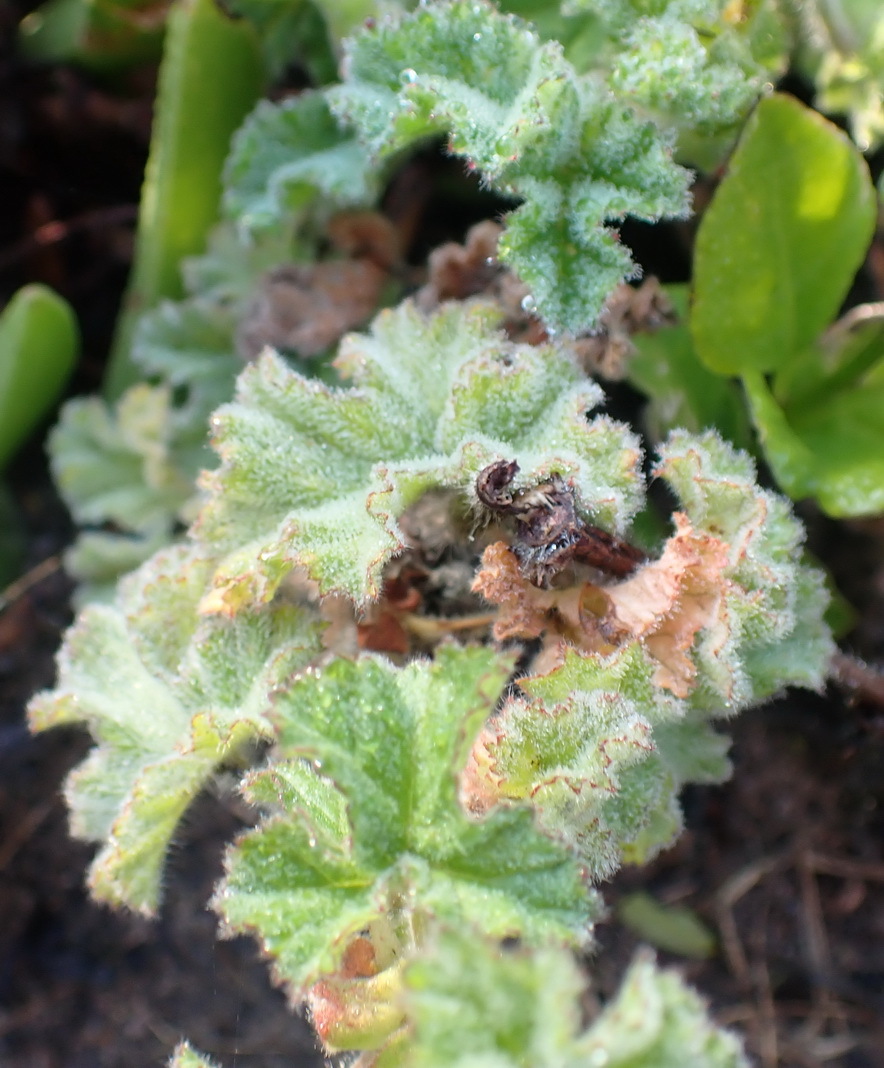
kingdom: Plantae
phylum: Tracheophyta
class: Magnoliopsida
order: Geraniales
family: Geraniaceae
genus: Pelargonium
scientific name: Pelargonium capitatum
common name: Rose scented geranium
